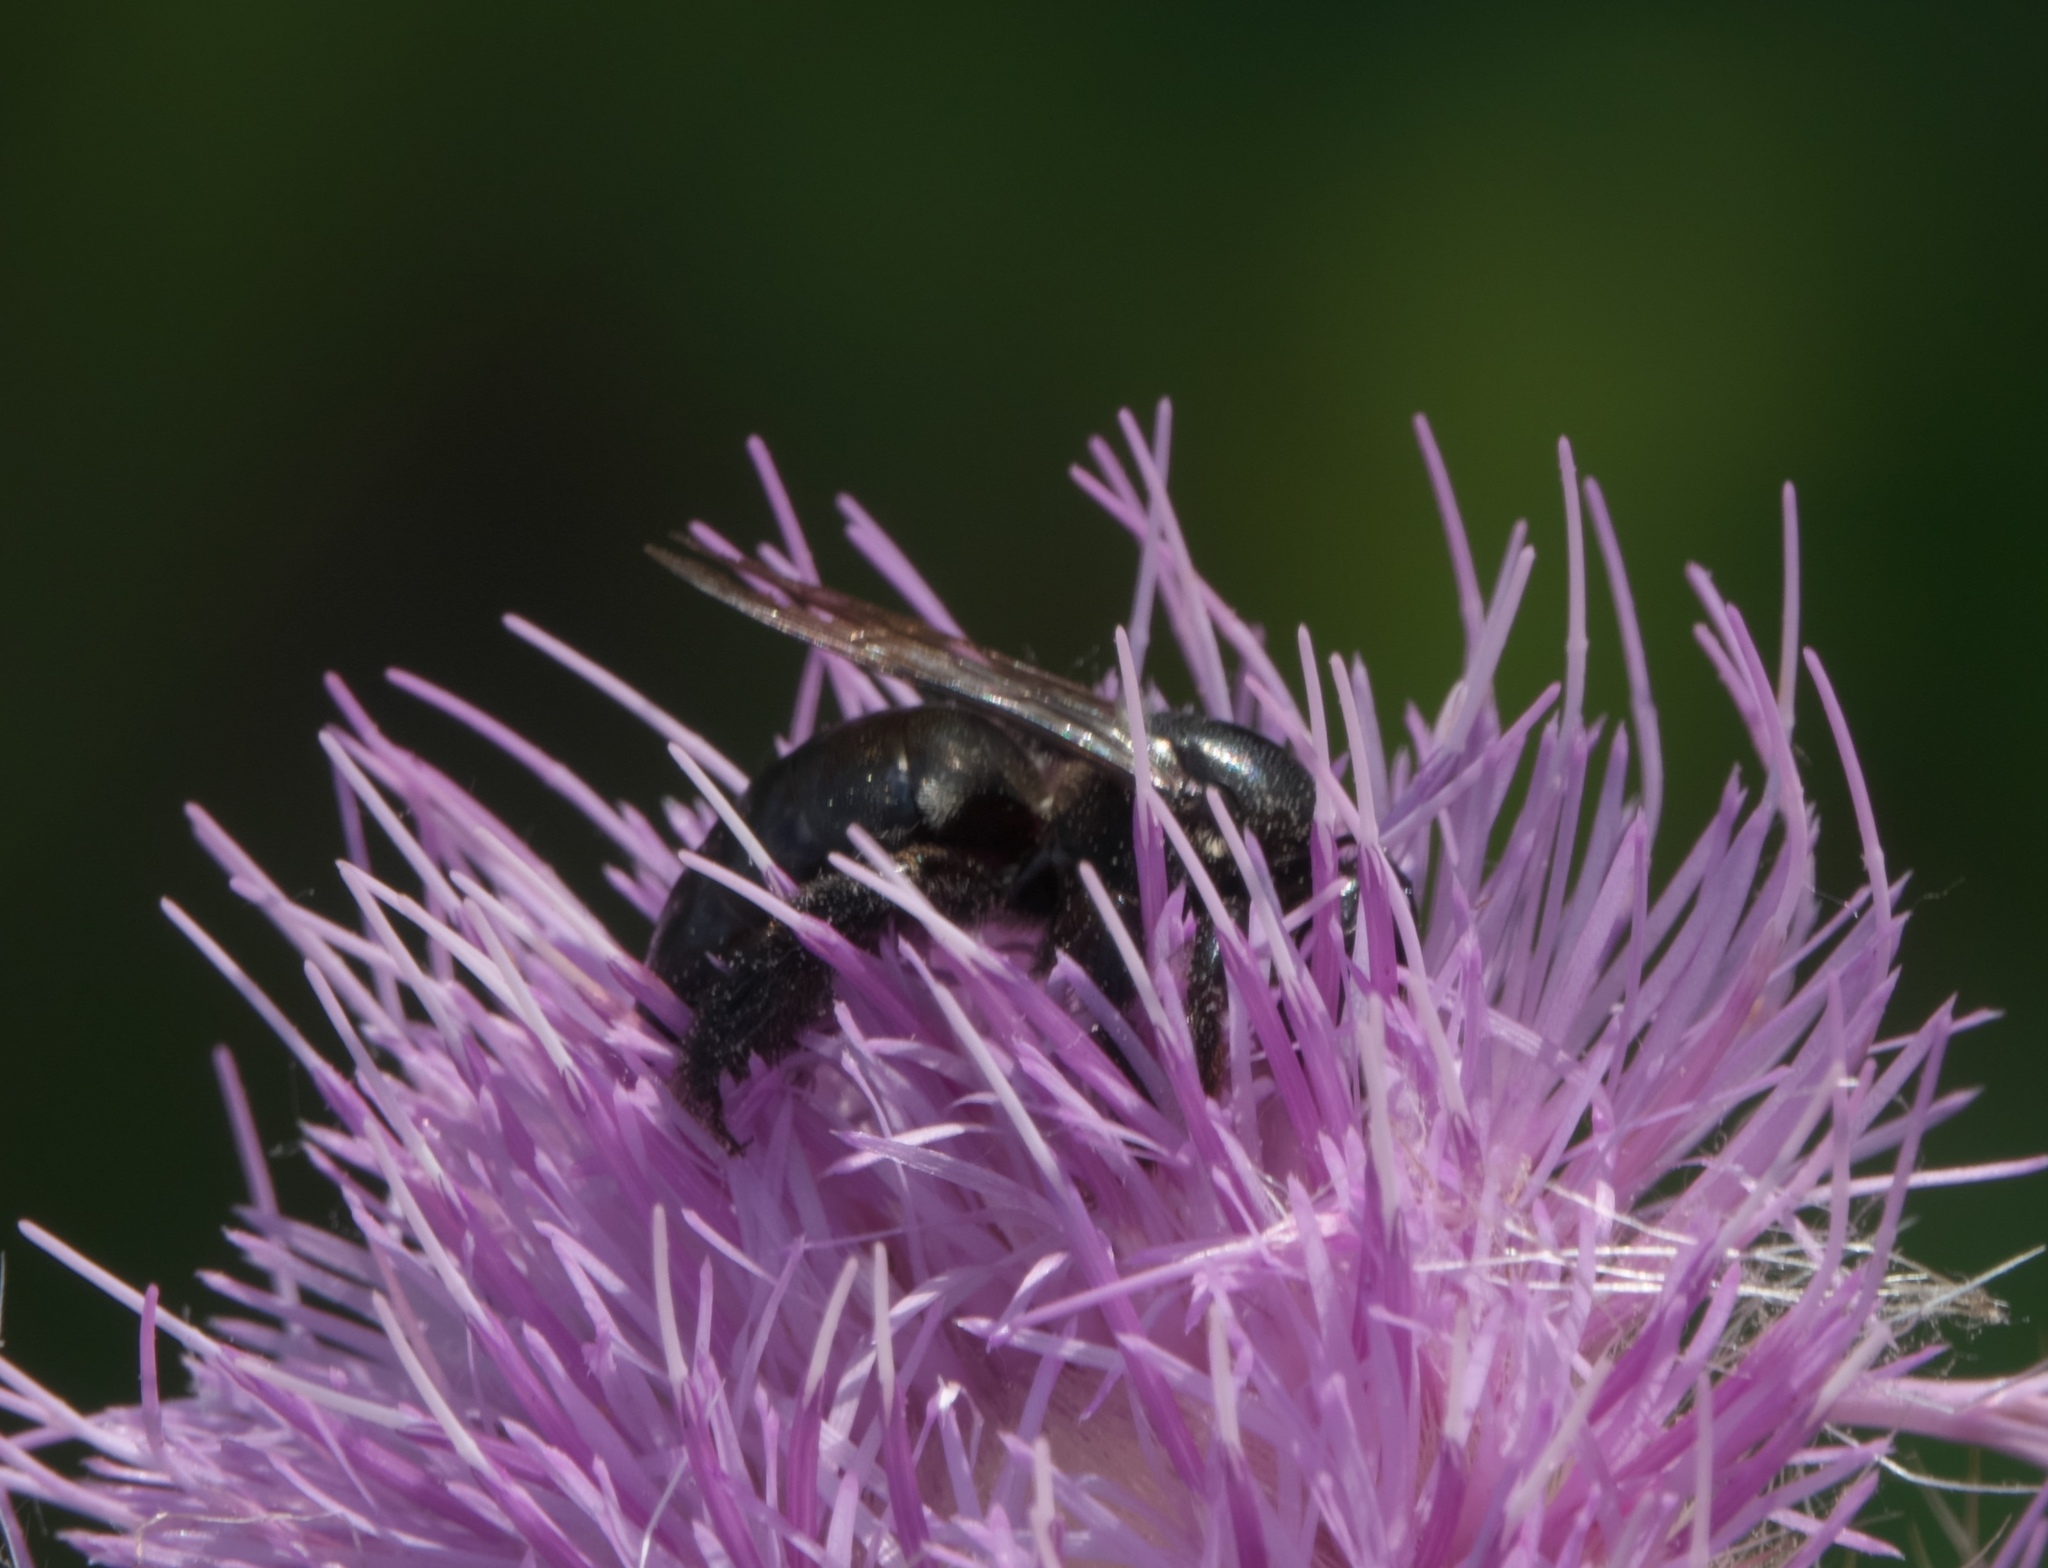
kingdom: Animalia
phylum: Arthropoda
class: Insecta
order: Hymenoptera
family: Apidae
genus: Xylocopa
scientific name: Xylocopa micans
